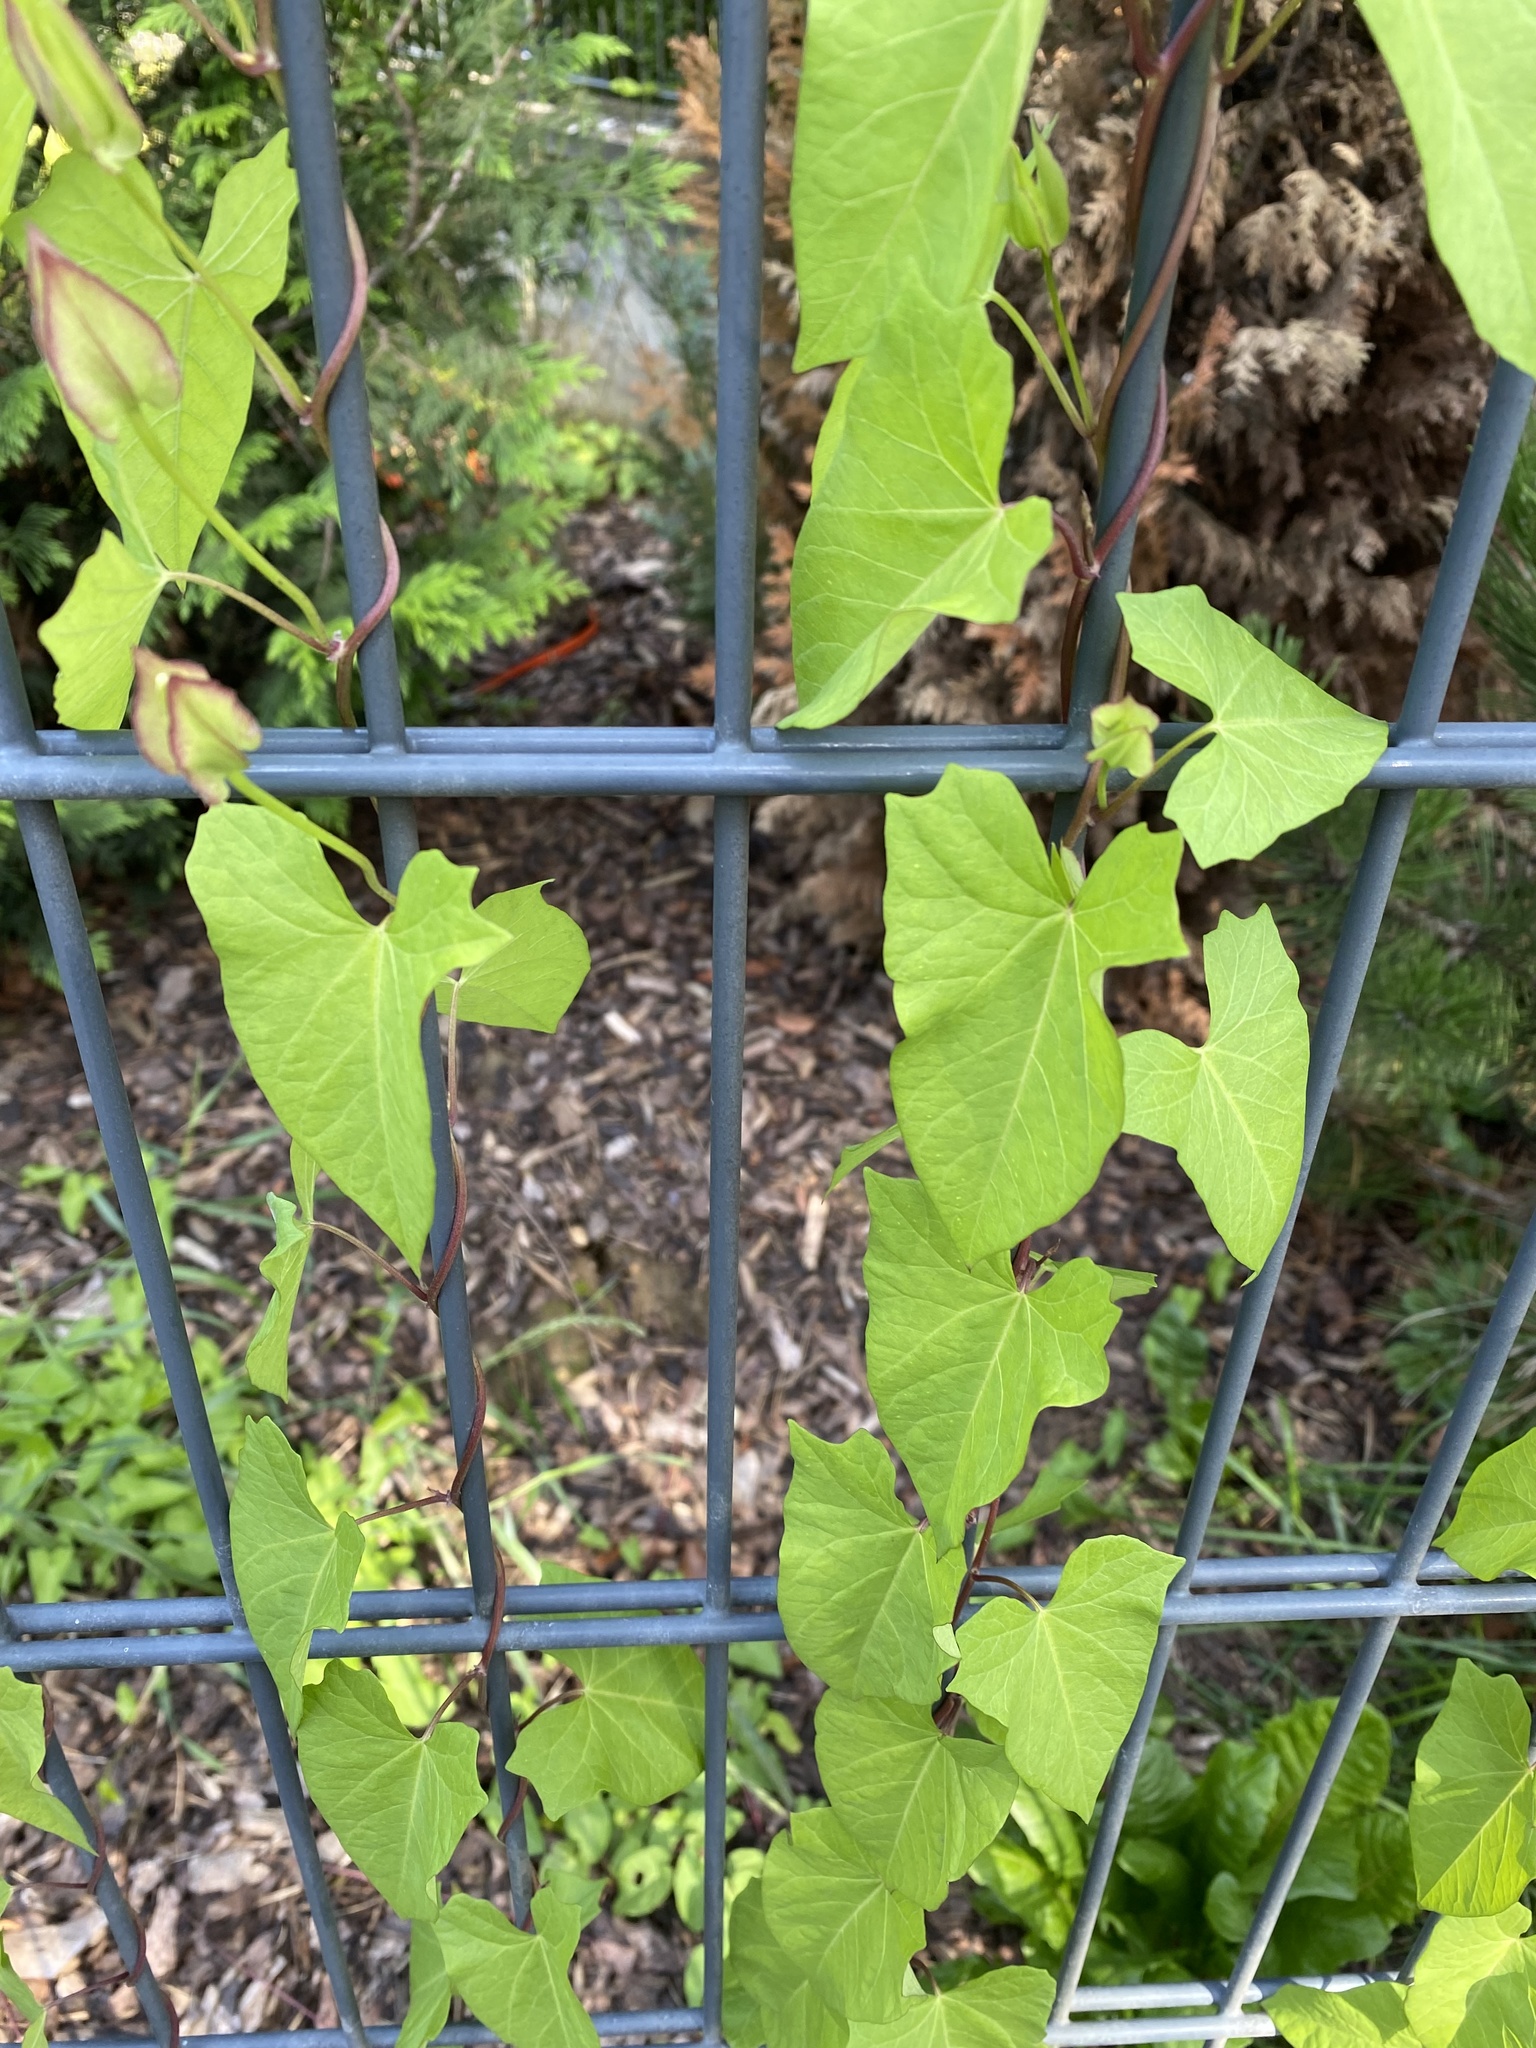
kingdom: Plantae
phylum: Tracheophyta
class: Magnoliopsida
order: Solanales
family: Convolvulaceae
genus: Calystegia
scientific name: Calystegia sepium
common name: Hedge bindweed
